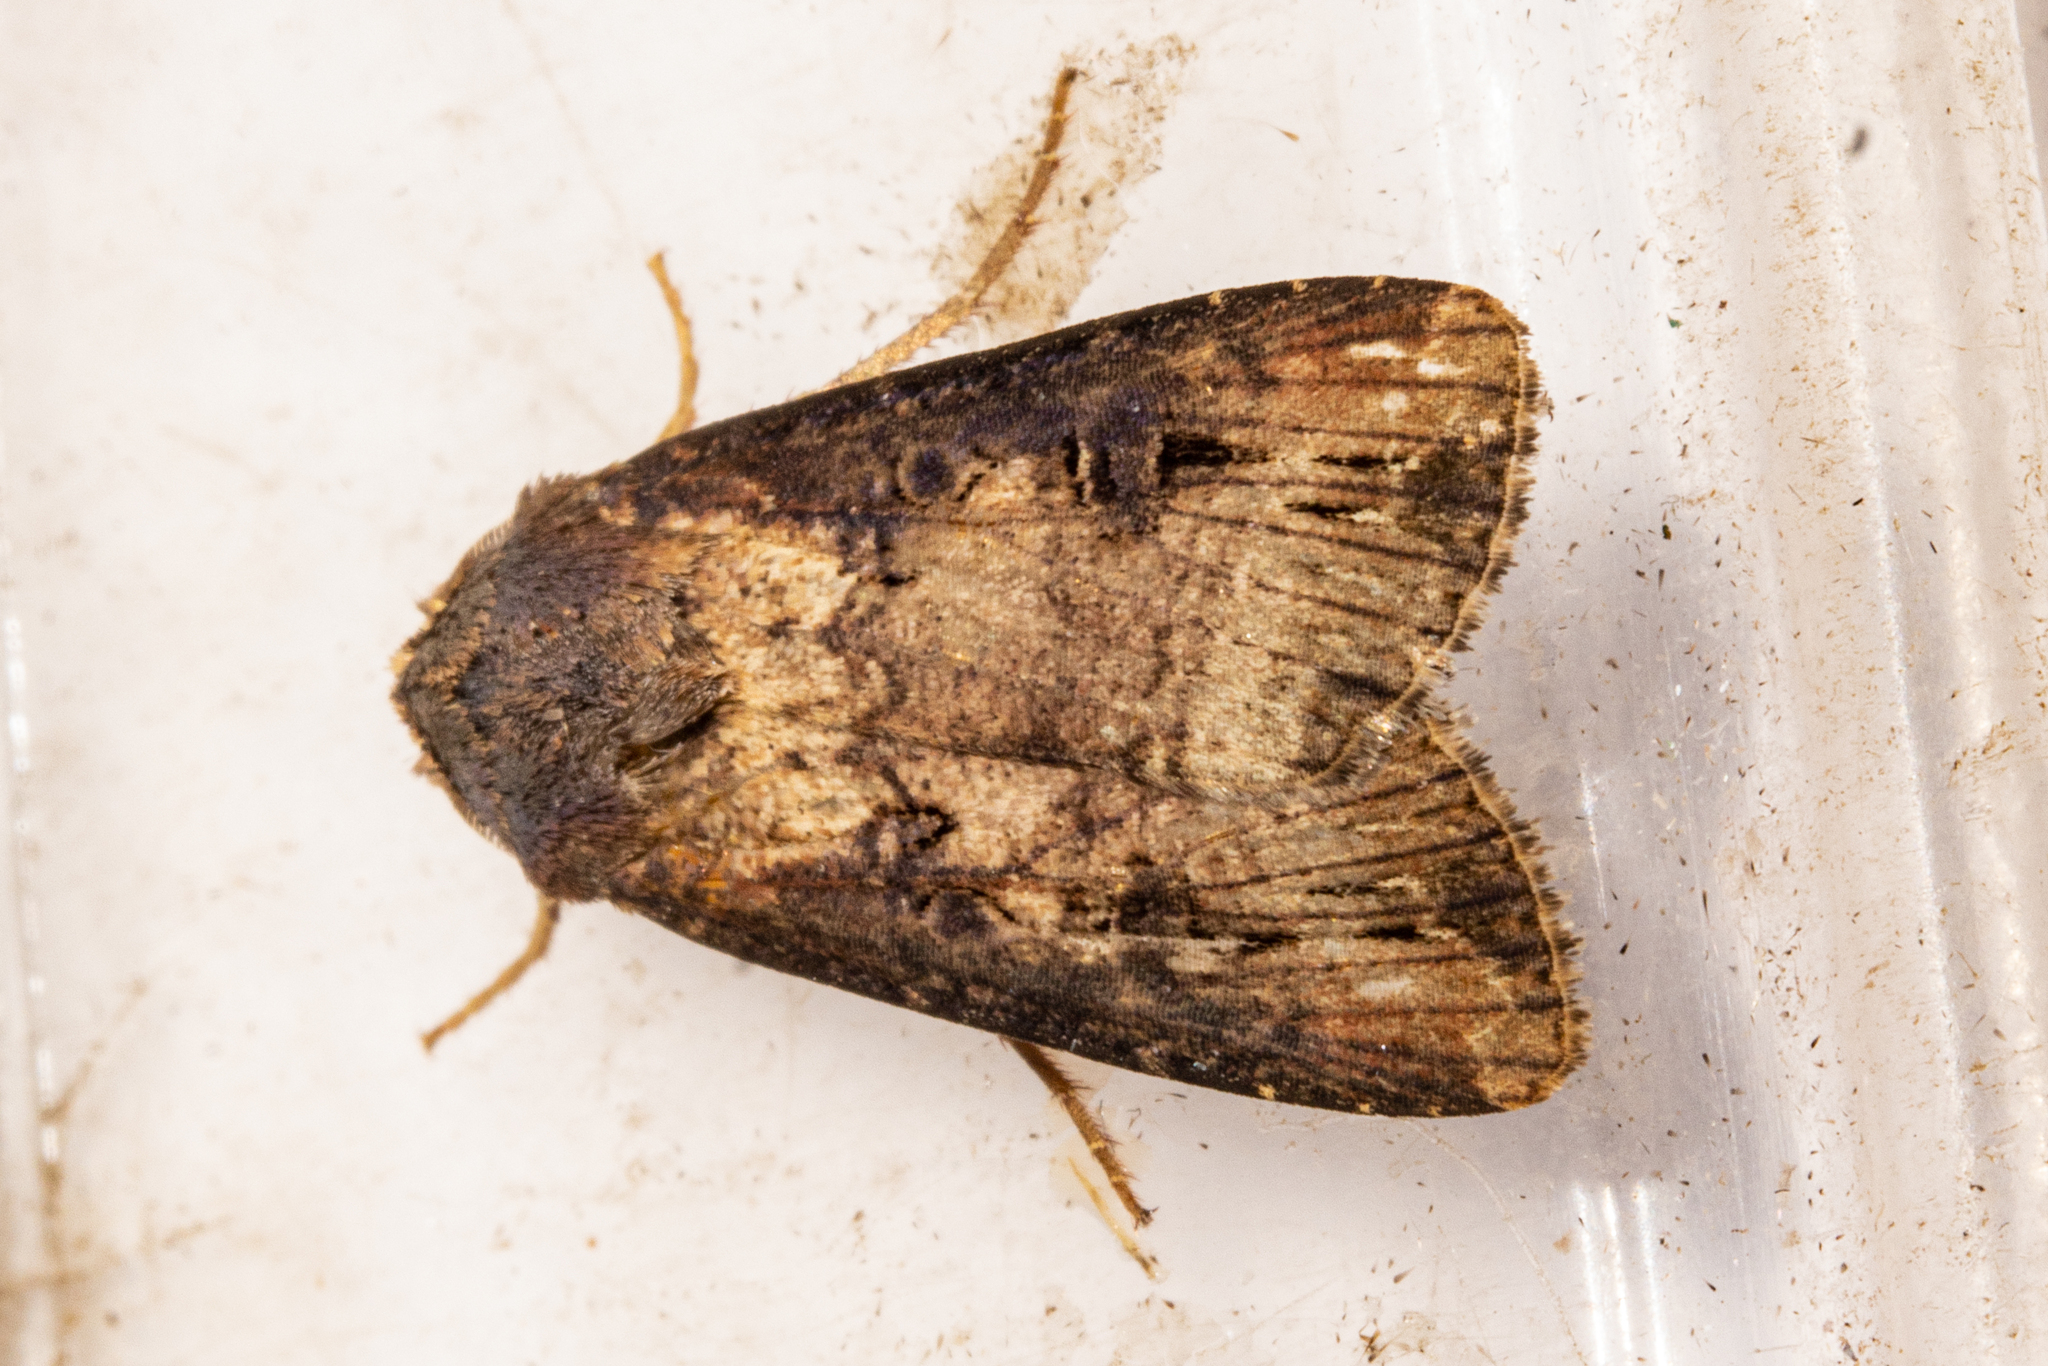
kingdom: Animalia
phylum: Arthropoda
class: Insecta
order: Lepidoptera
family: Noctuidae
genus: Agrotis
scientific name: Agrotis ipsilon
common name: Dark sword-grass
